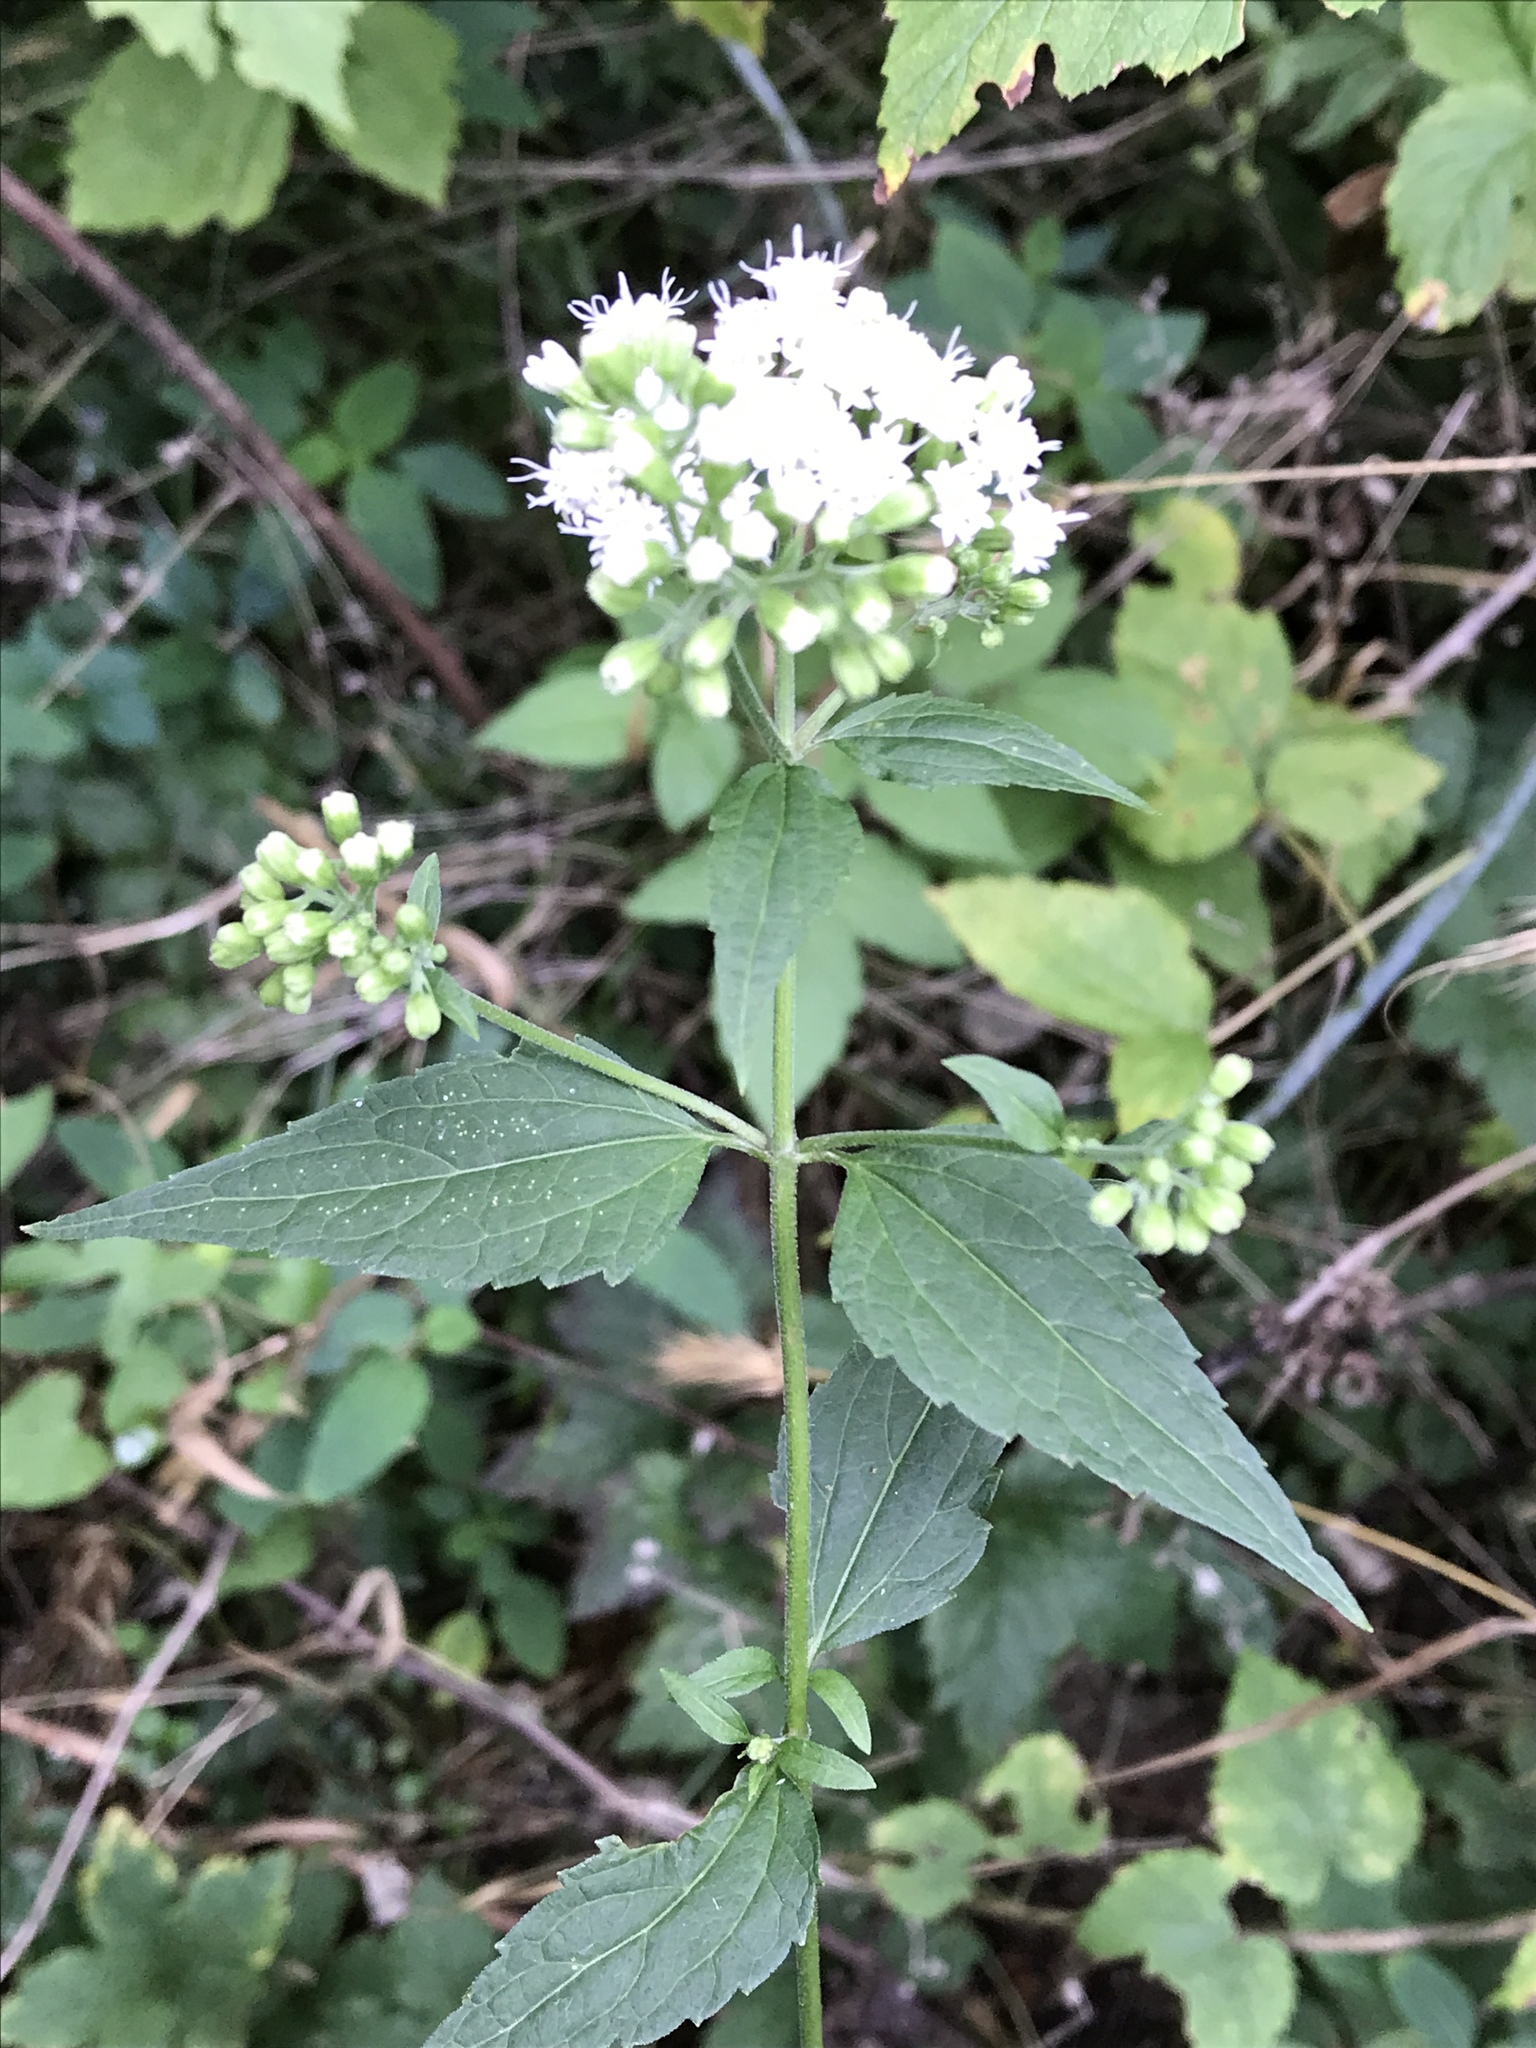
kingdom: Plantae
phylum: Tracheophyta
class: Magnoliopsida
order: Asterales
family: Asteraceae
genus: Ageratina
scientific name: Ageratina altissima
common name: White snakeroot
